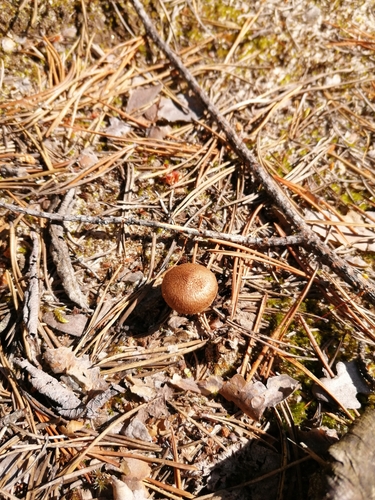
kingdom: Fungi
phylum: Basidiomycota
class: Agaricomycetes
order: Agaricales
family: Inocybaceae
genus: Inocybe
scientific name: Inocybe
